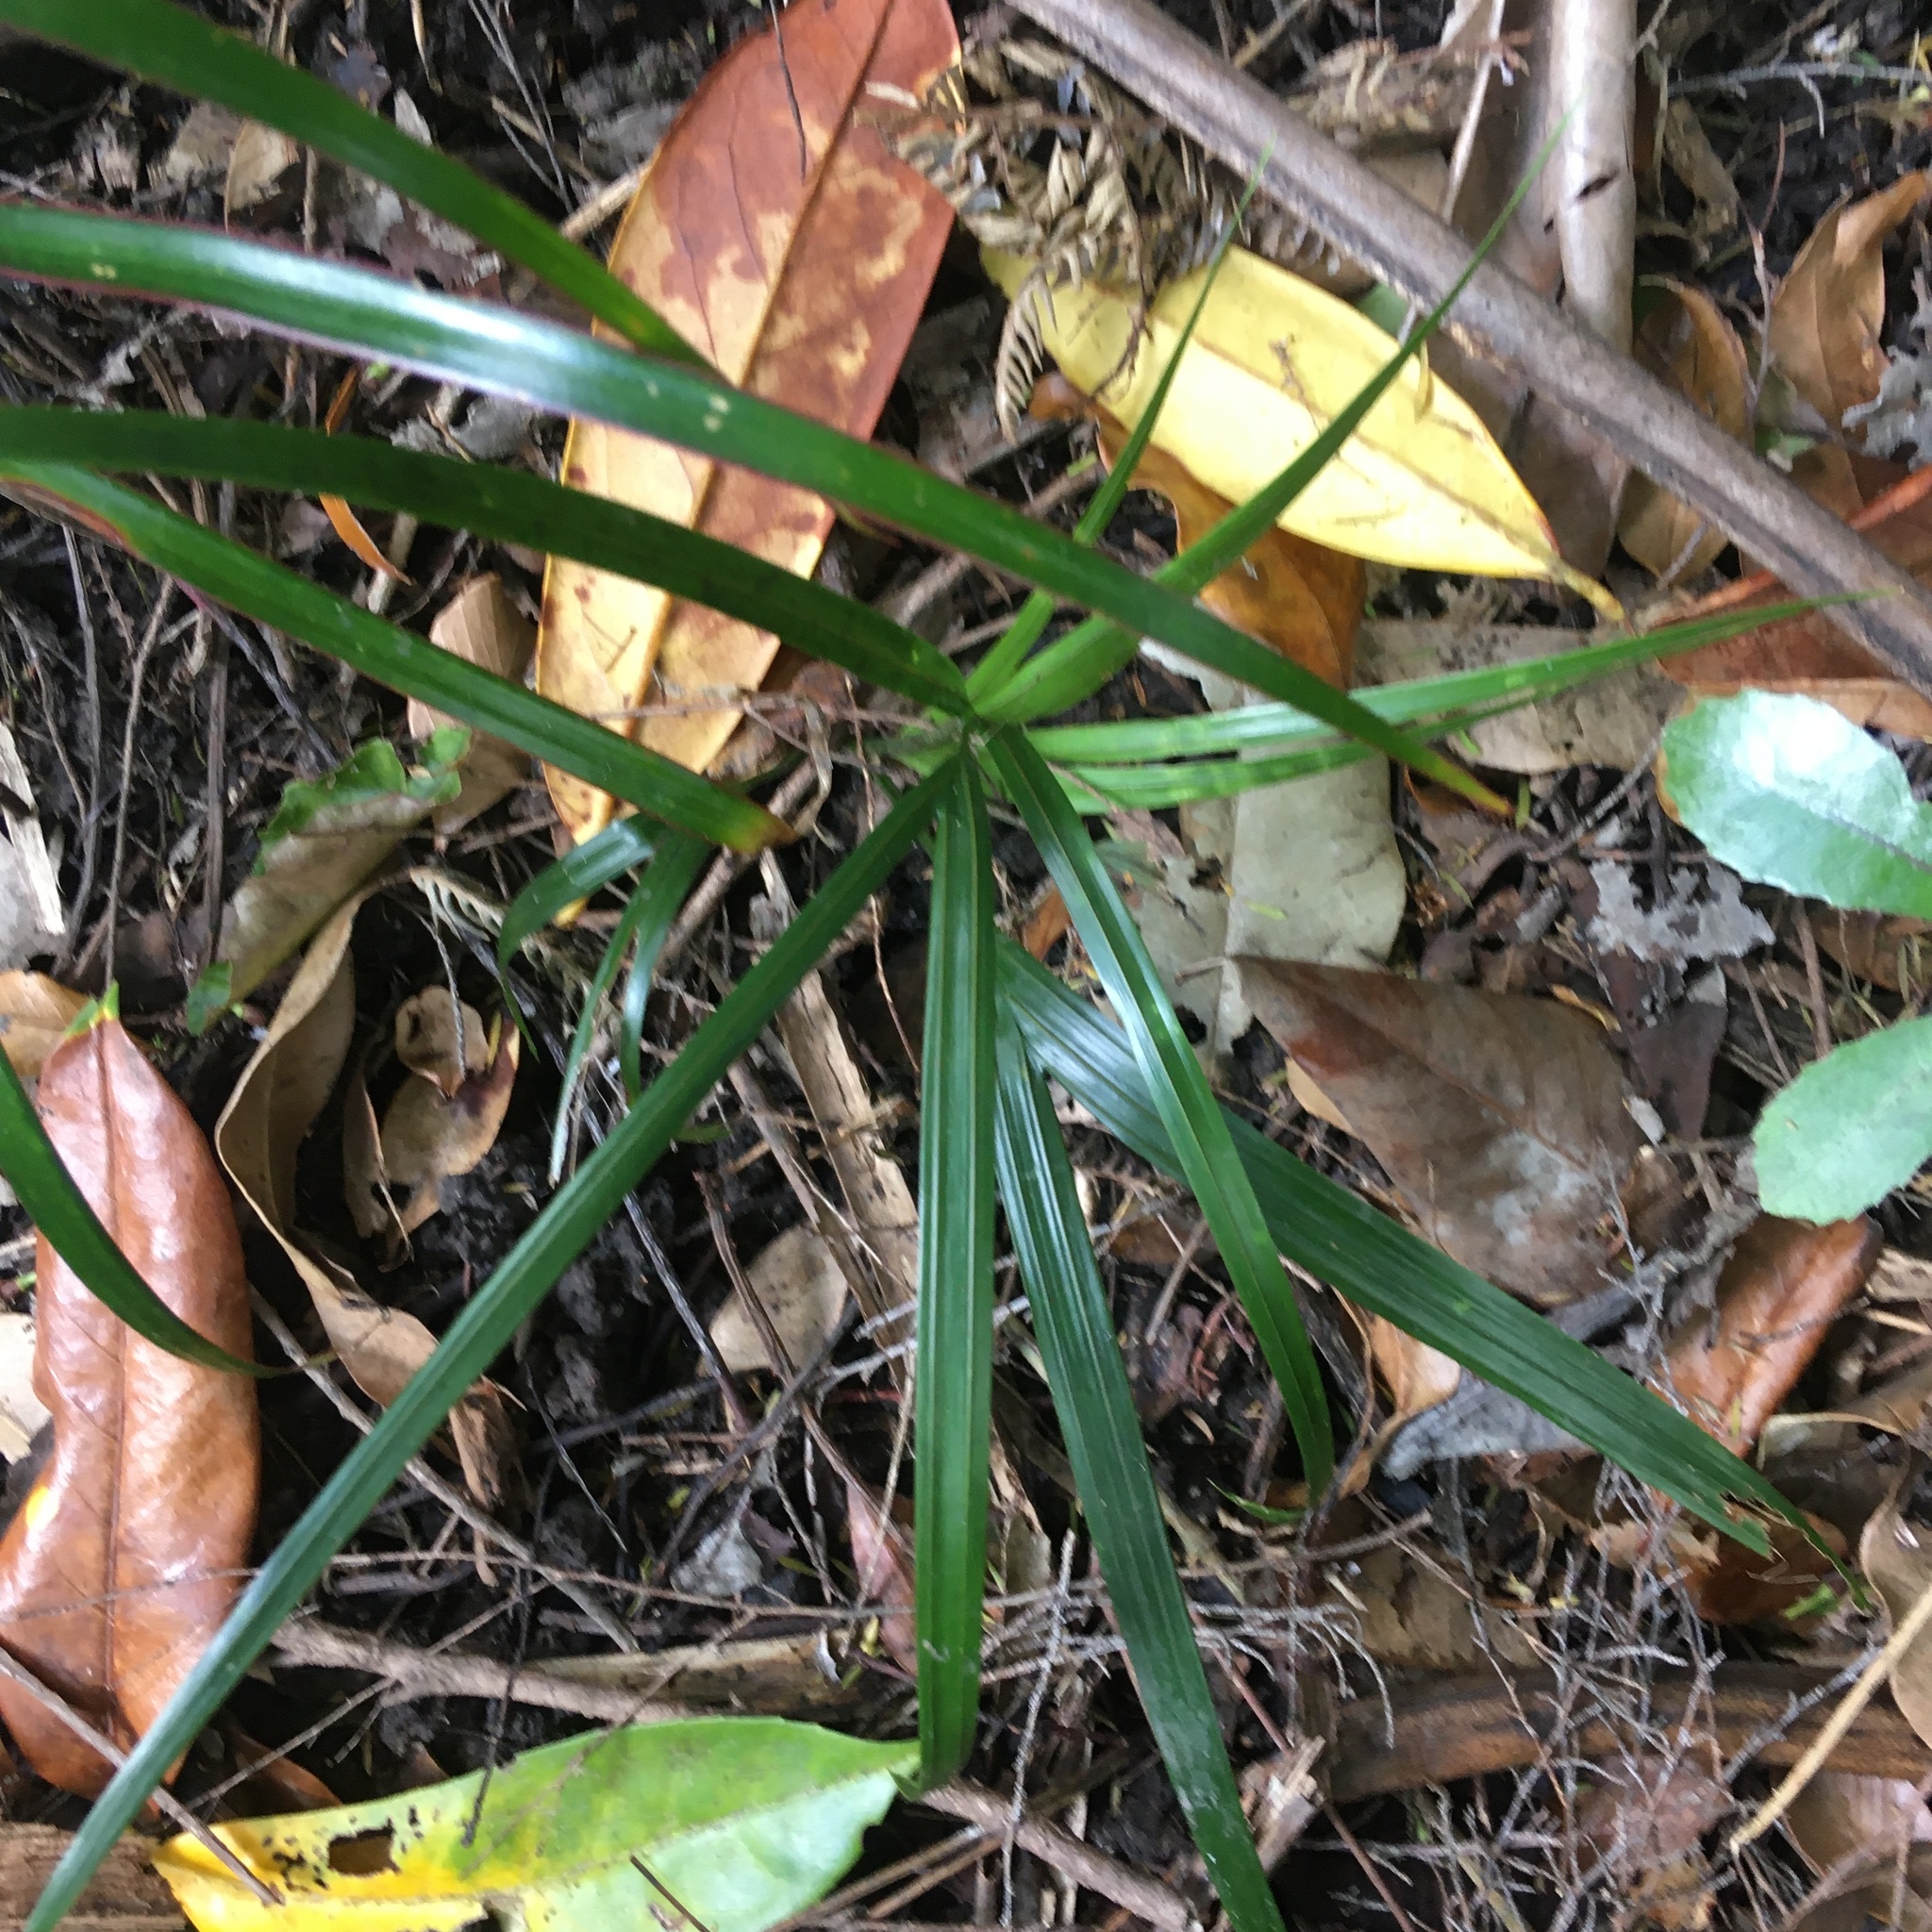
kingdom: Plantae
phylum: Tracheophyta
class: Liliopsida
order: Pandanales
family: Pandanaceae
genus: Freycinetia
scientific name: Freycinetia banksii
